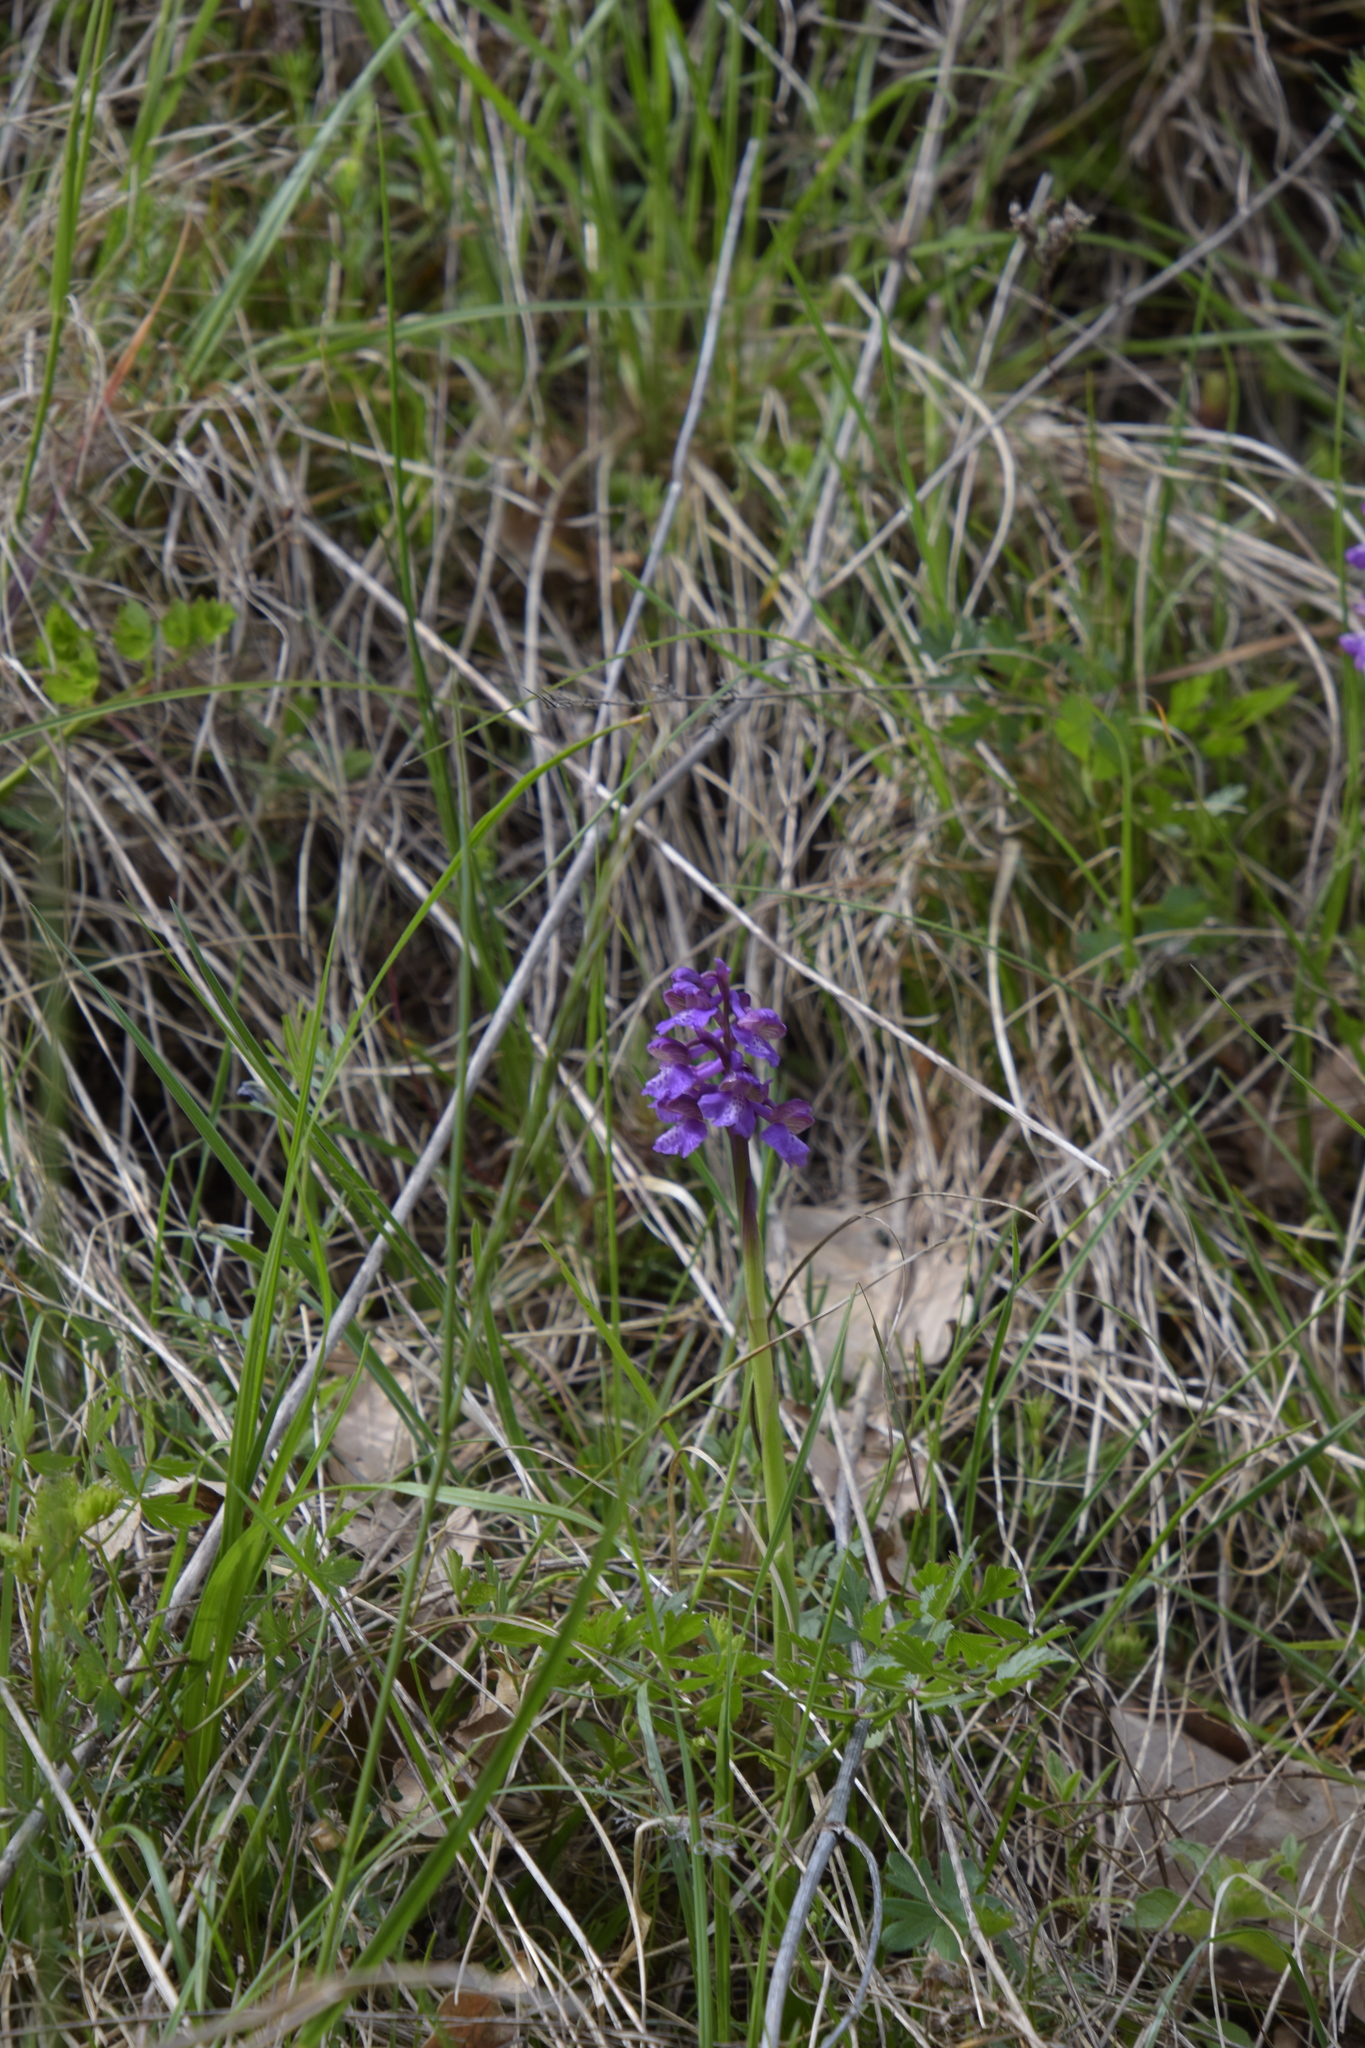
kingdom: Plantae
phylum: Tracheophyta
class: Liliopsida
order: Asparagales
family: Orchidaceae
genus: Anacamptis
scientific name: Anacamptis morio
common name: Green-winged orchid
